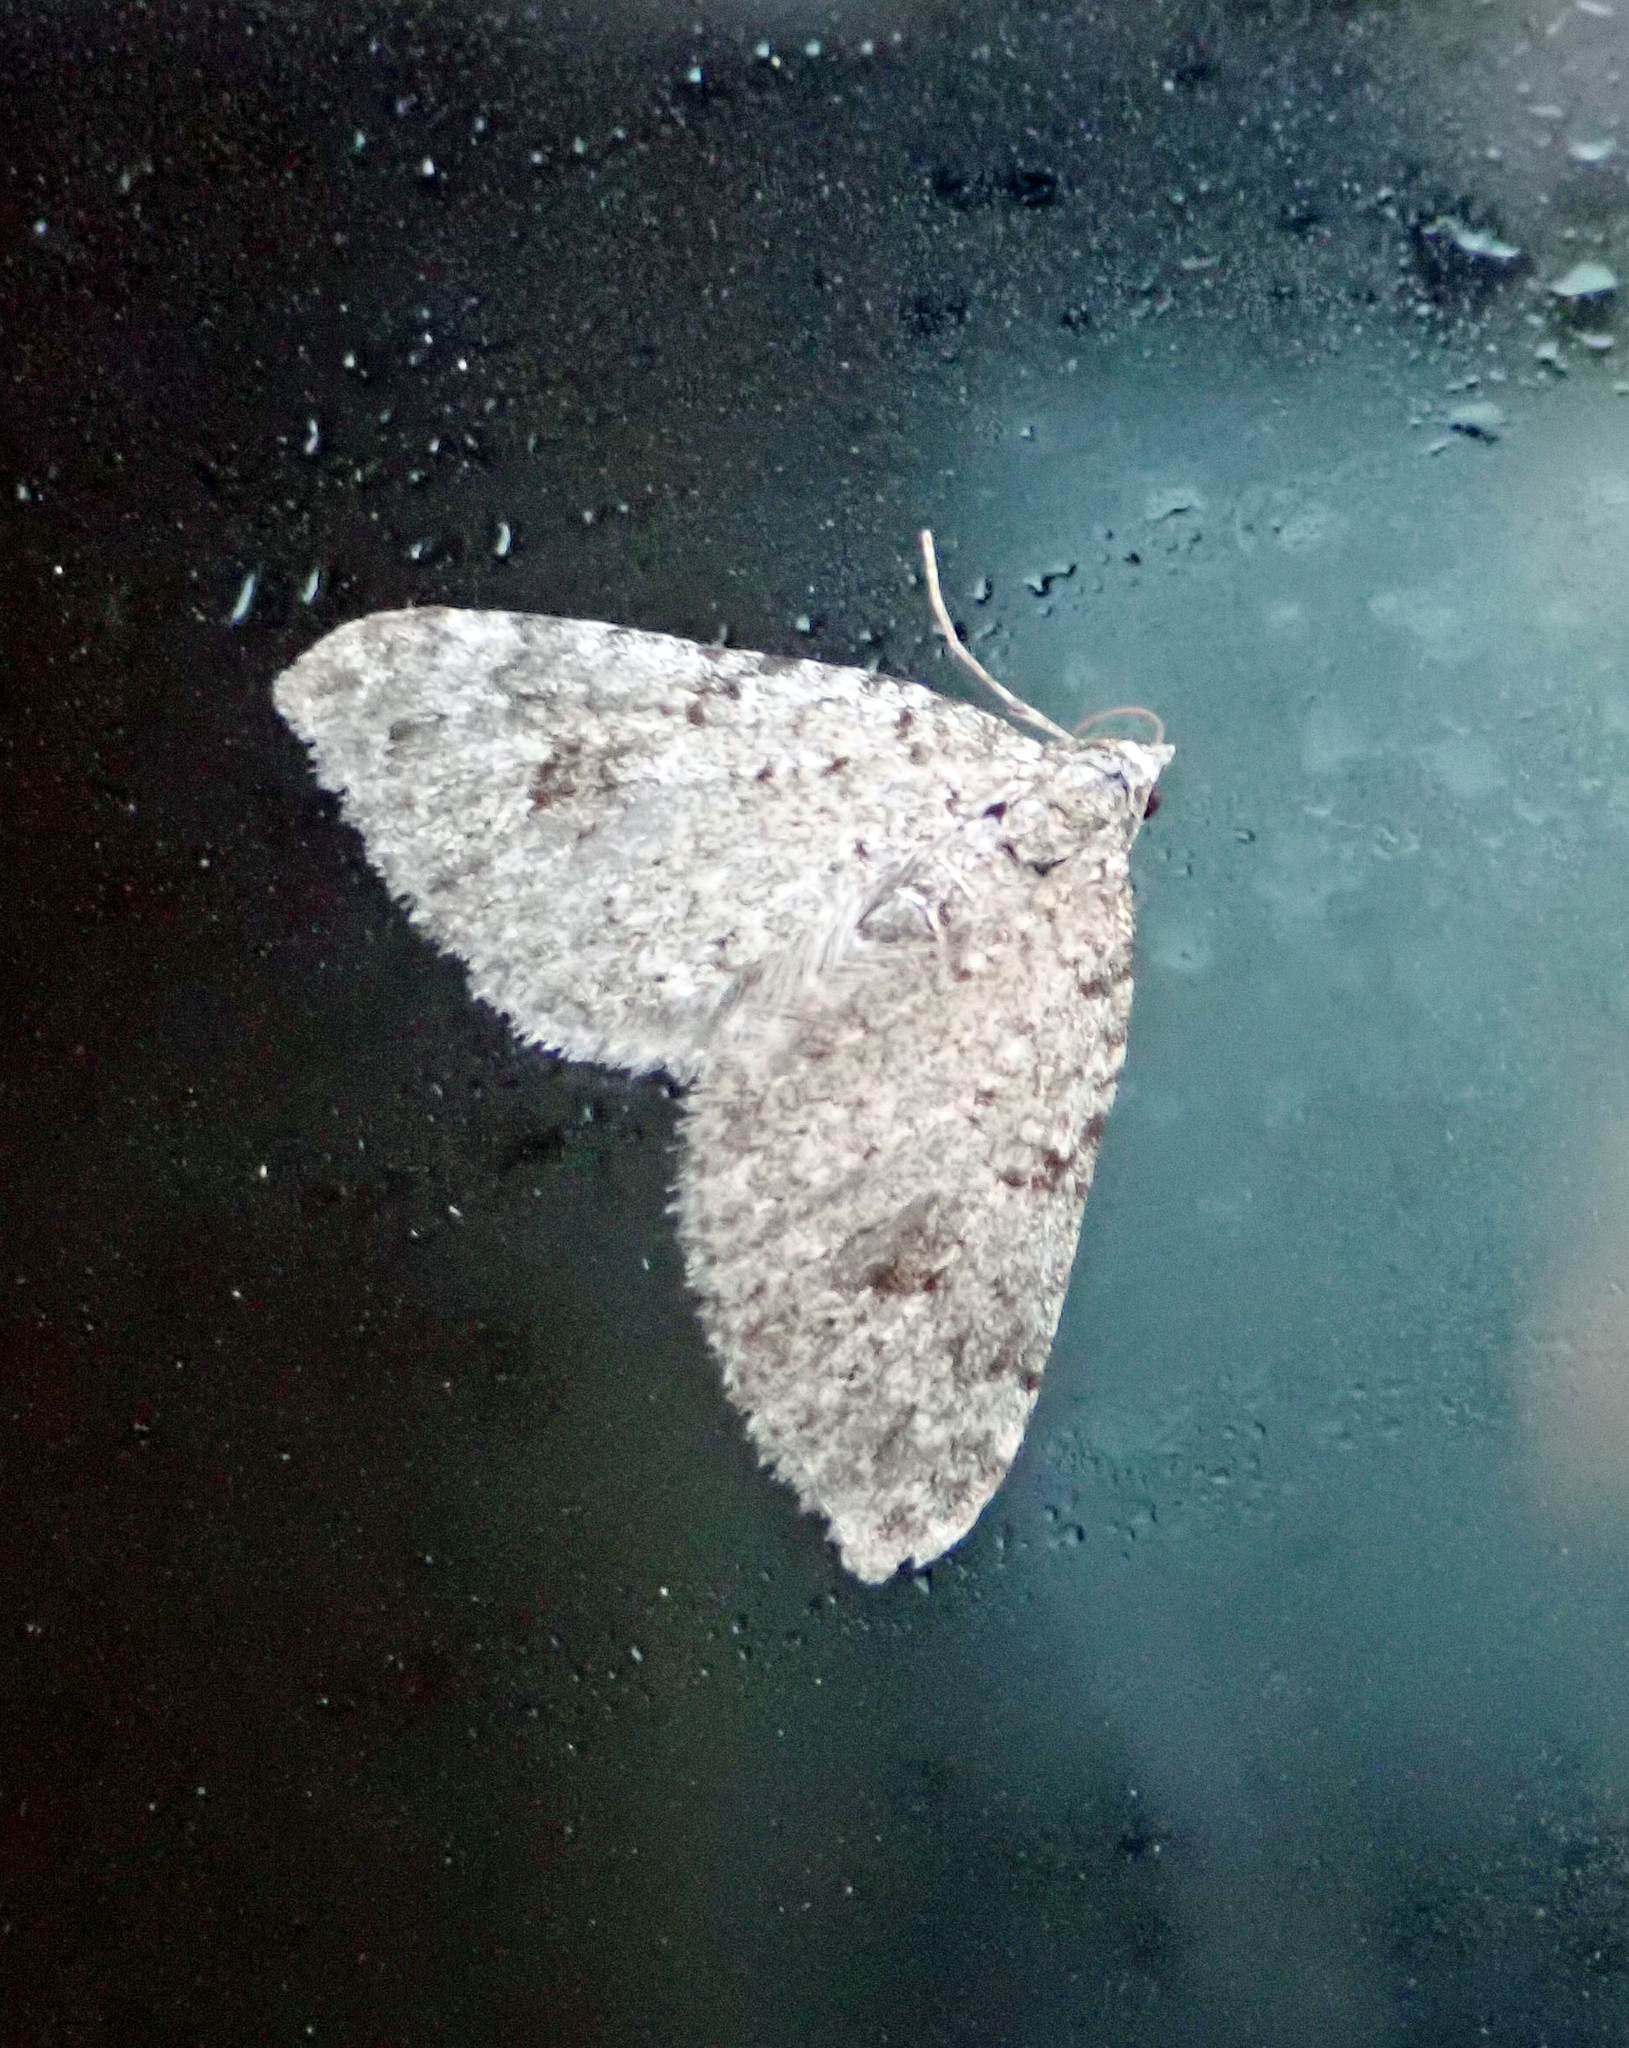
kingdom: Animalia
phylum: Arthropoda
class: Insecta
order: Lepidoptera
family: Geometridae
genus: Helastia
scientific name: Helastia cinerearia
